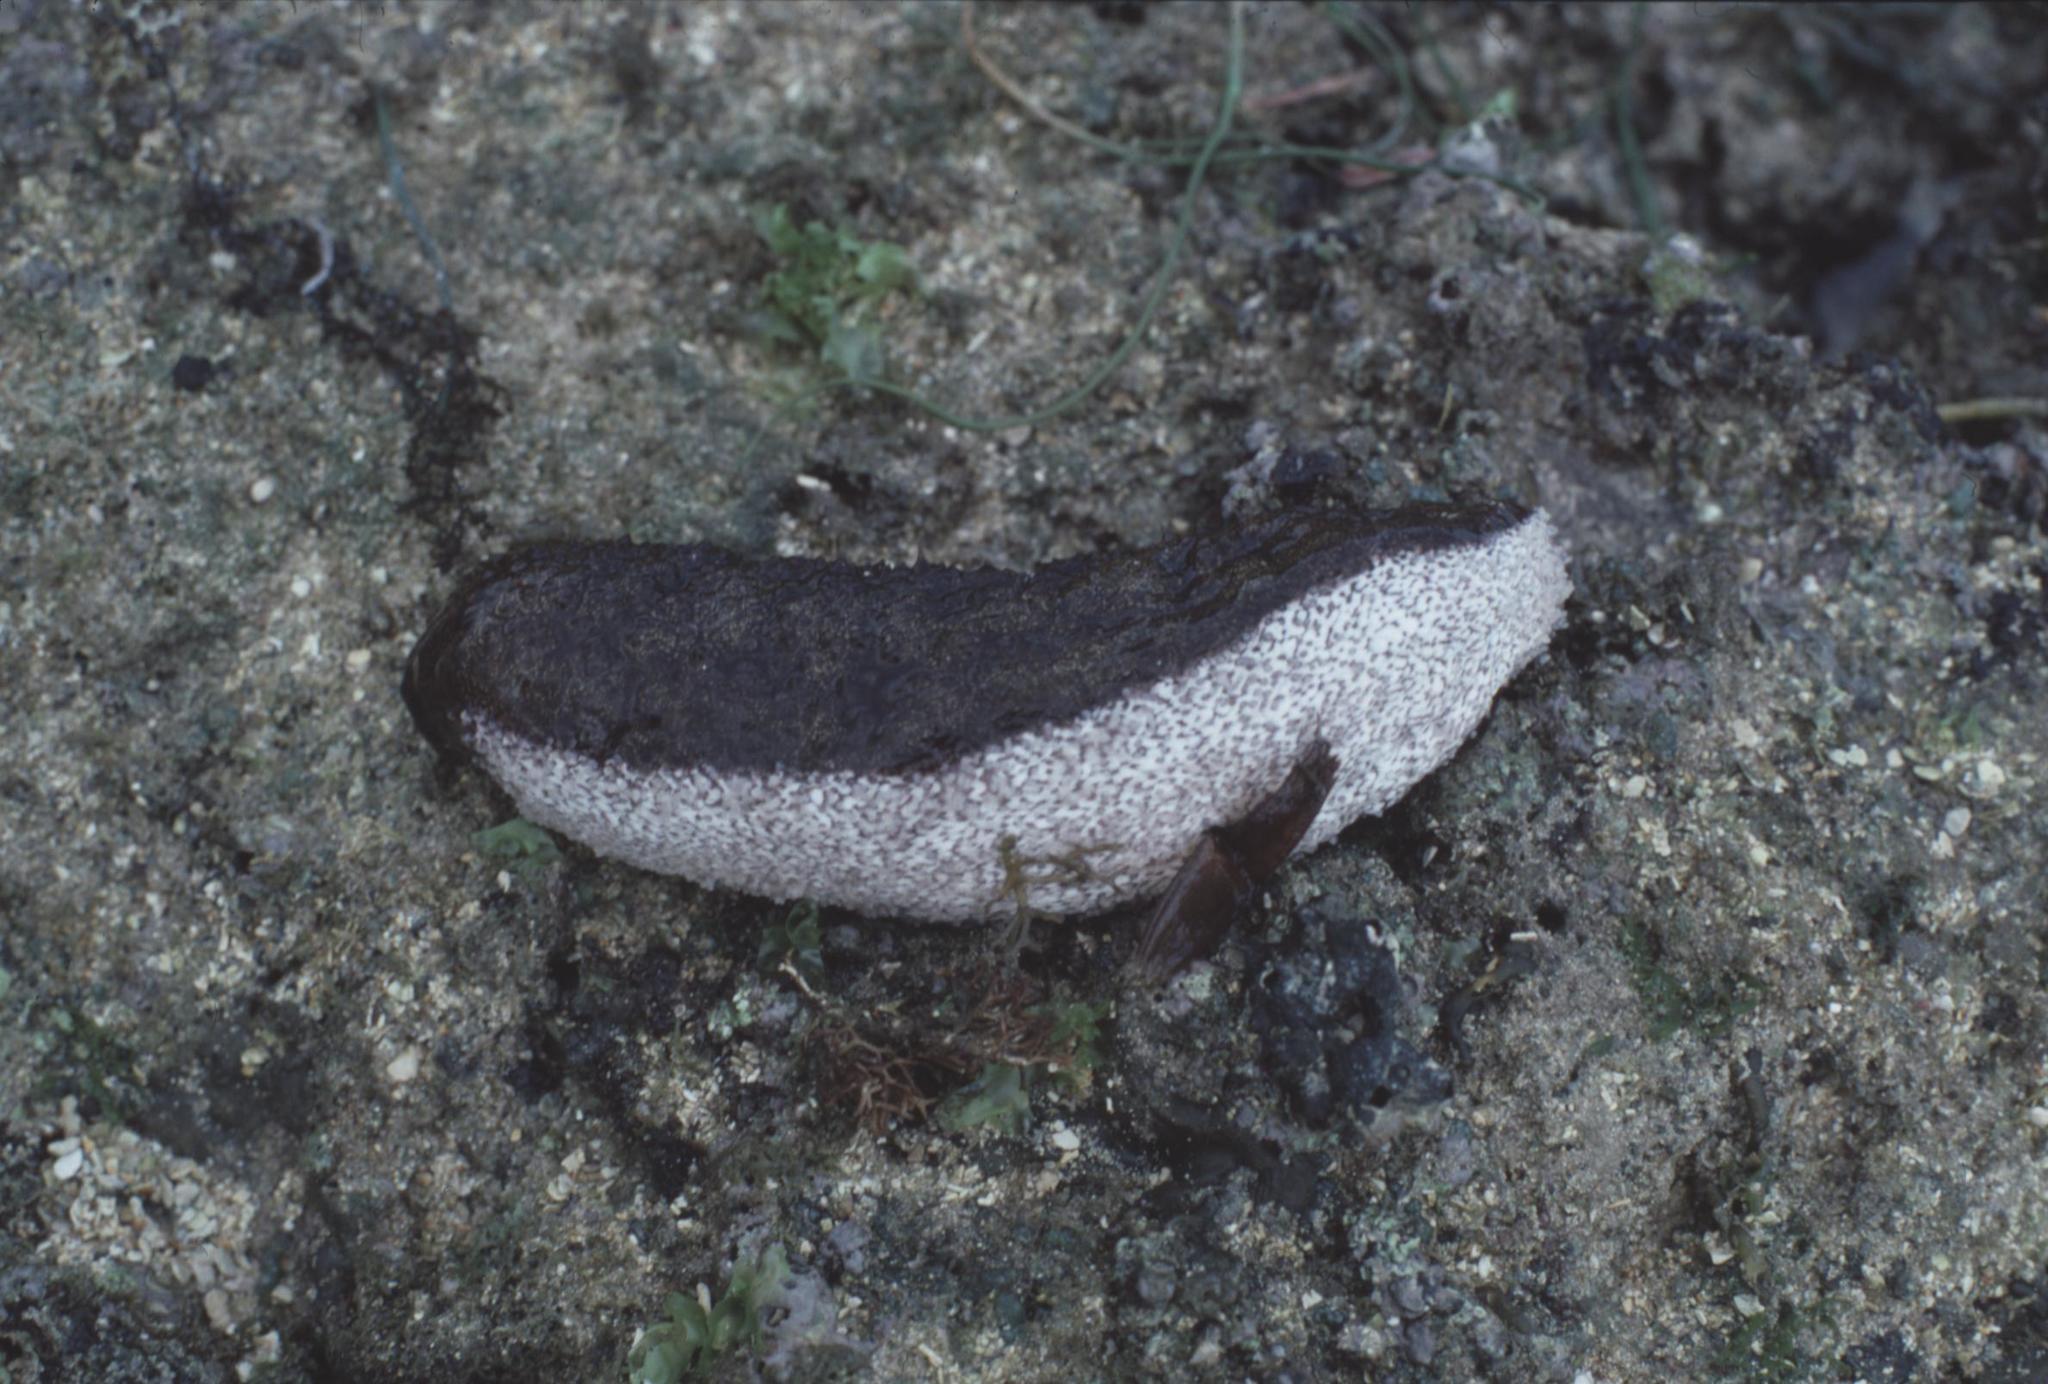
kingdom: Animalia
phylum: Echinodermata
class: Holothuroidea
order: Holothuriida
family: Holothuriidae
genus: Actinopyga
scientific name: Actinopyga bannwarthi
